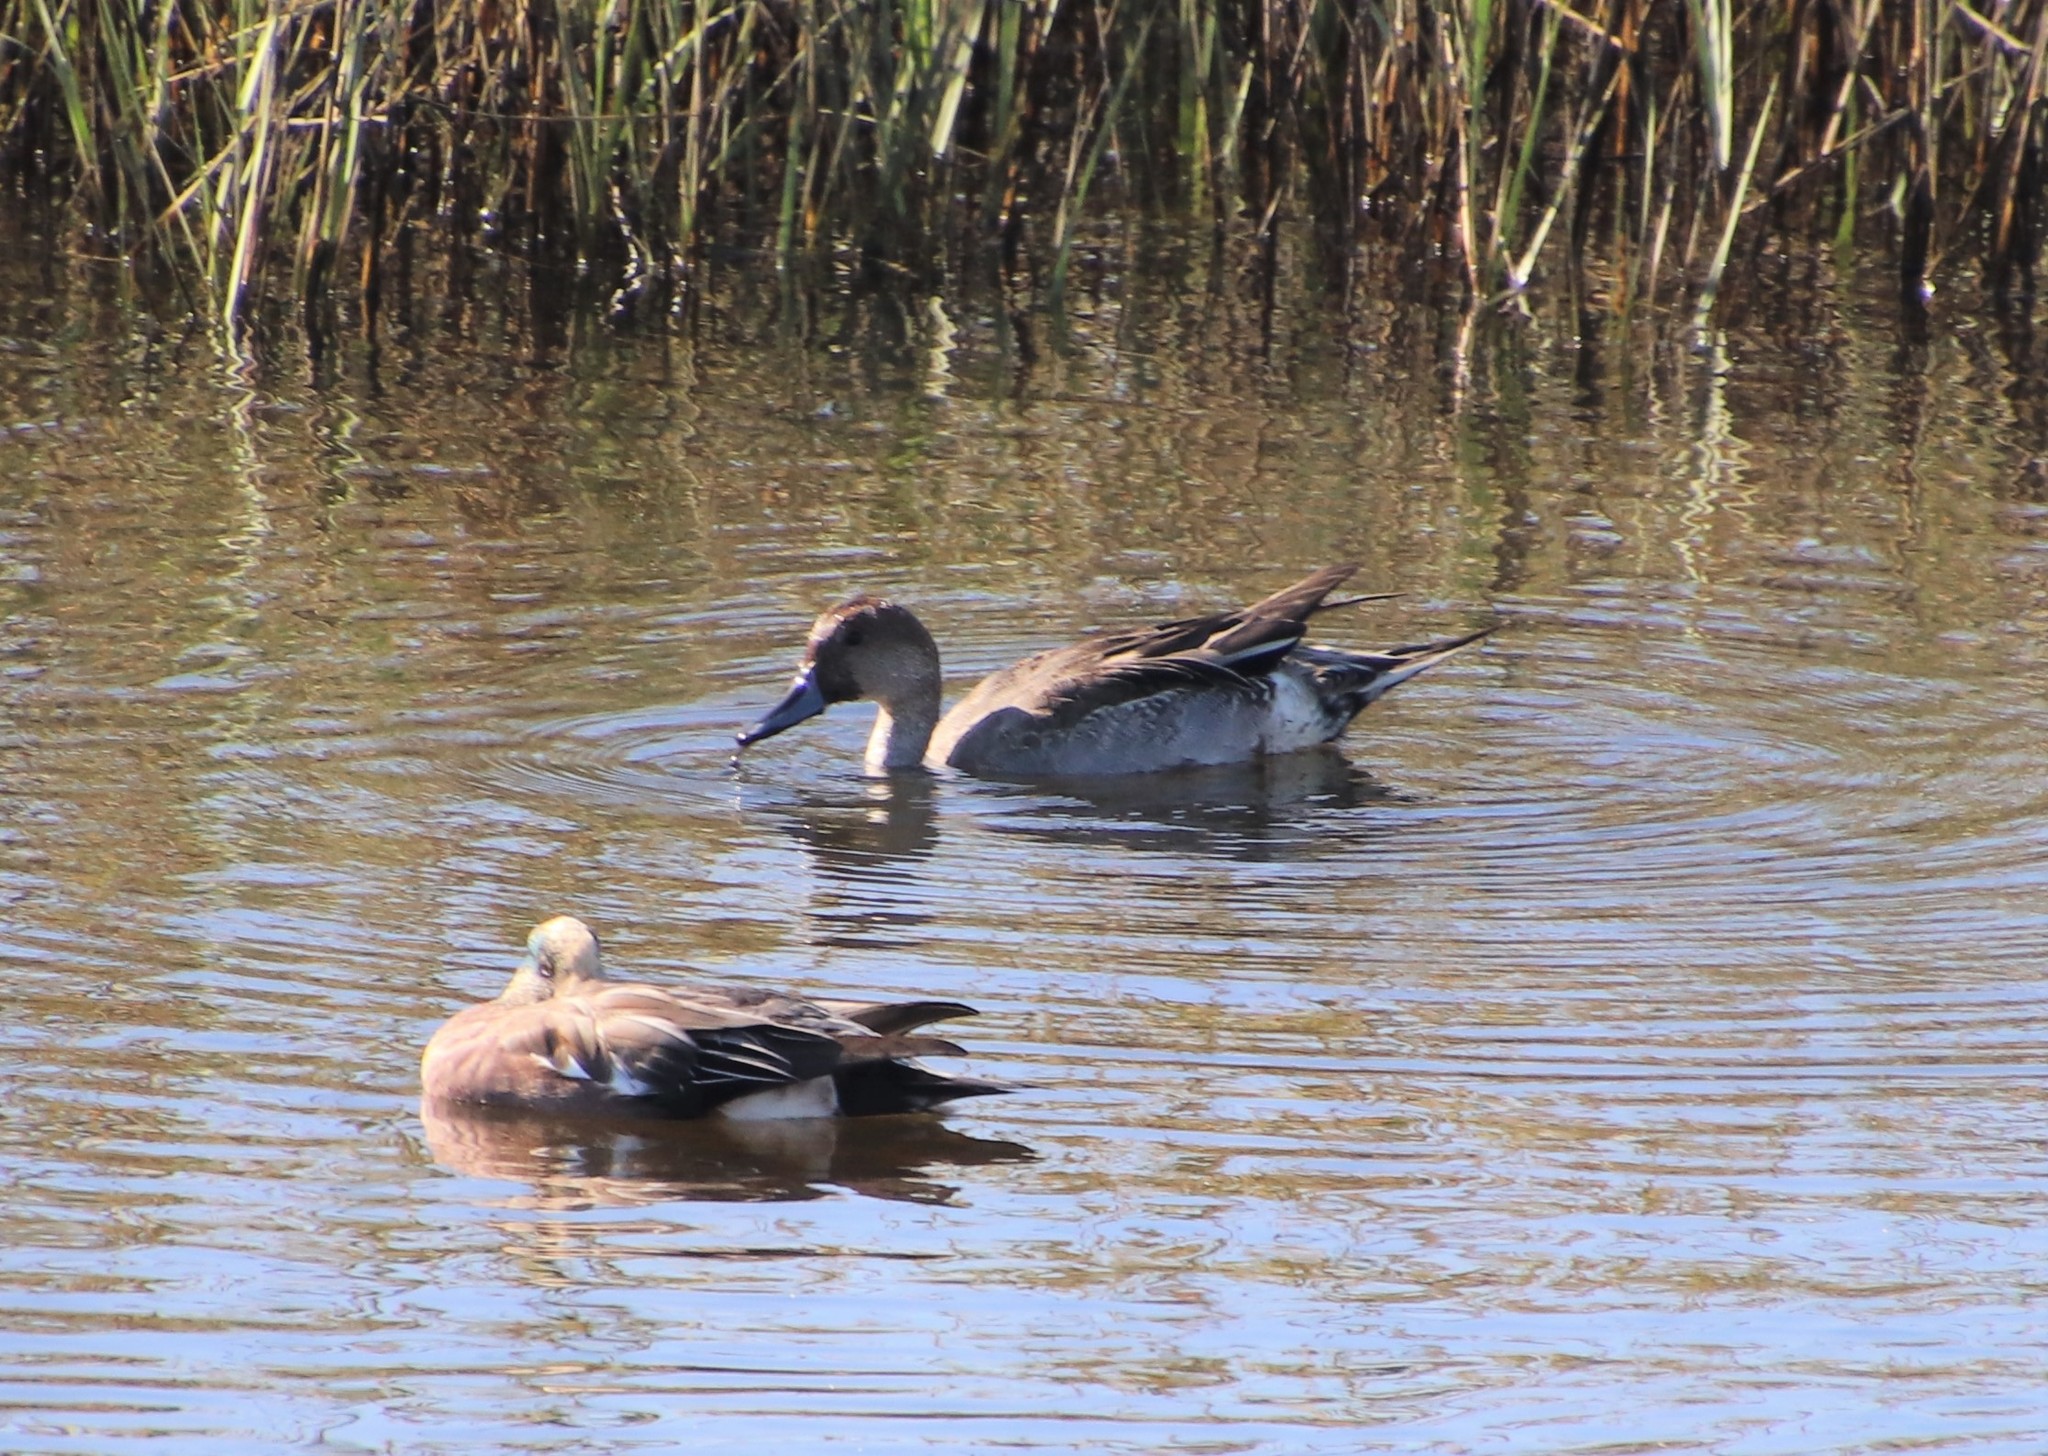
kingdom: Animalia
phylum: Chordata
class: Aves
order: Anseriformes
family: Anatidae
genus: Anas
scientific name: Anas acuta
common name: Northern pintail
